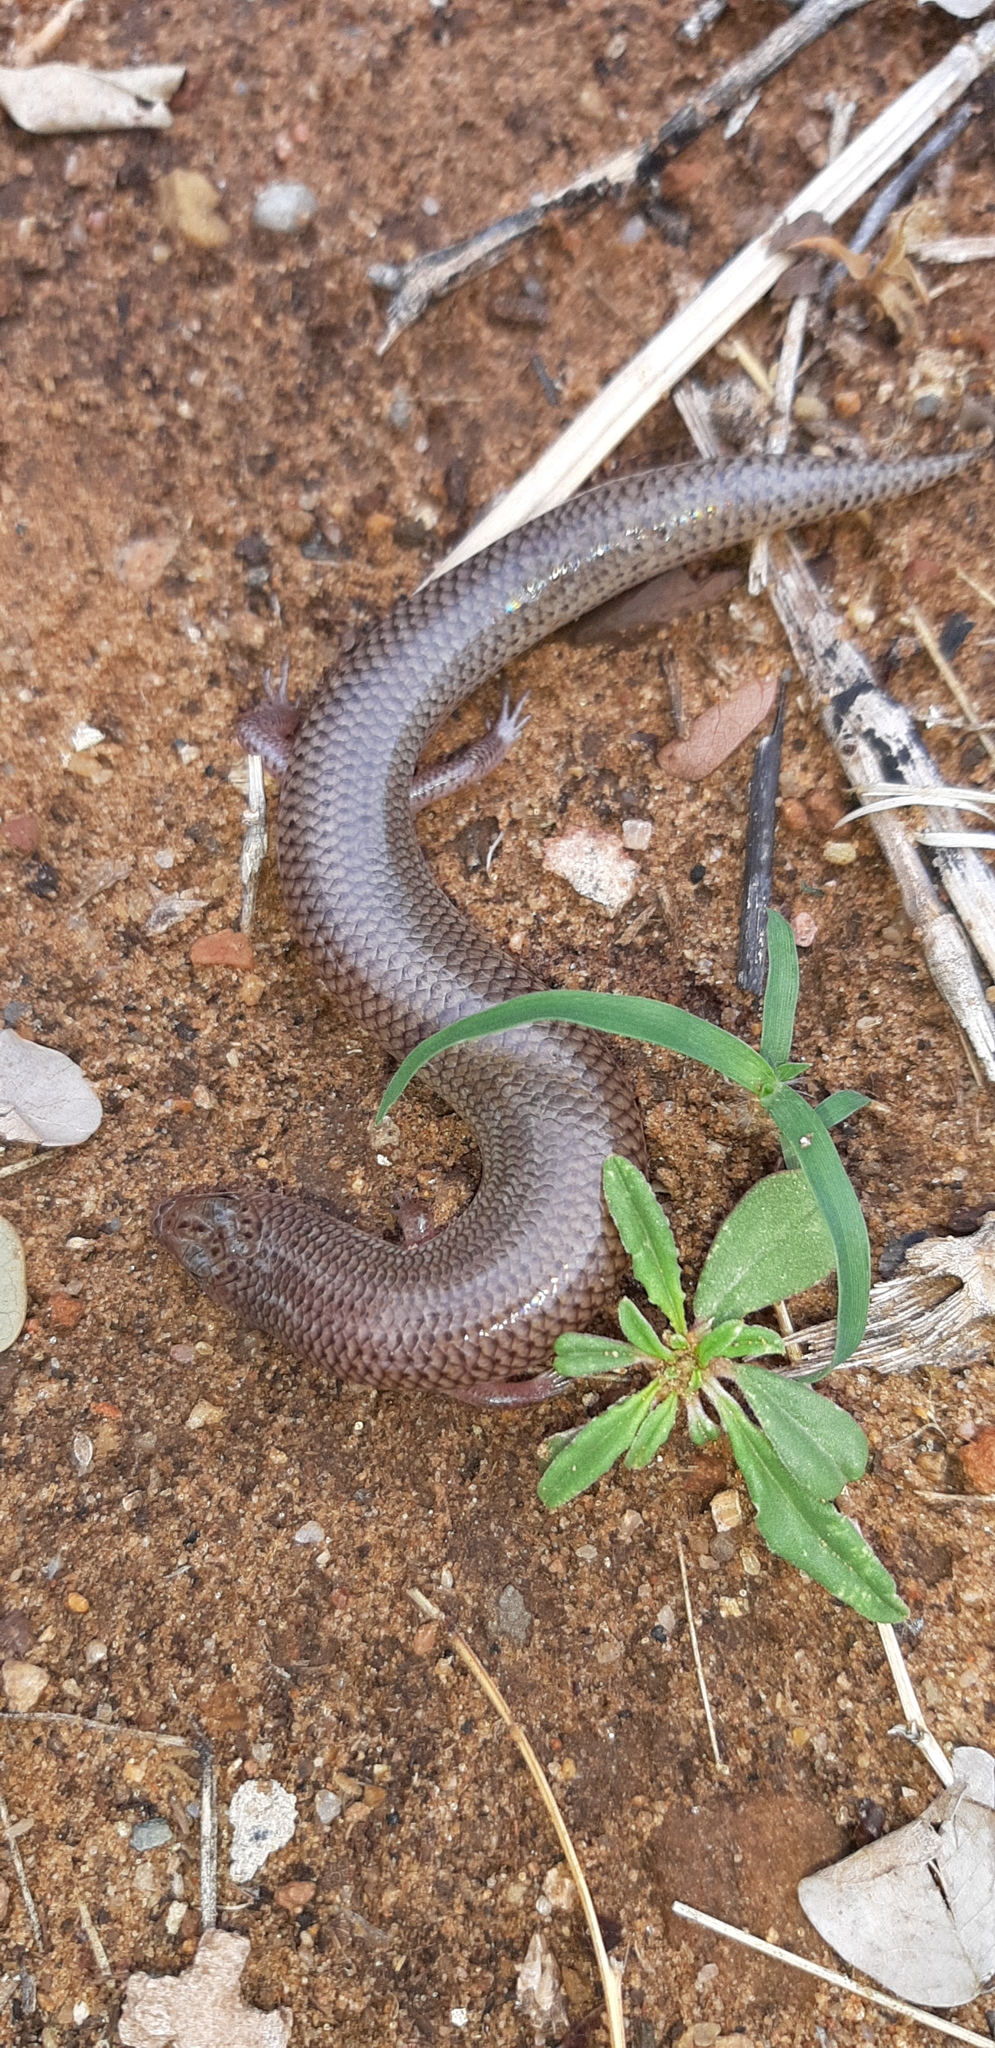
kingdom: Animalia
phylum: Chordata
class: Squamata
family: Scincidae
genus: Mochlus
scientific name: Mochlus sundevallii
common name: Peters' eyelid skink
